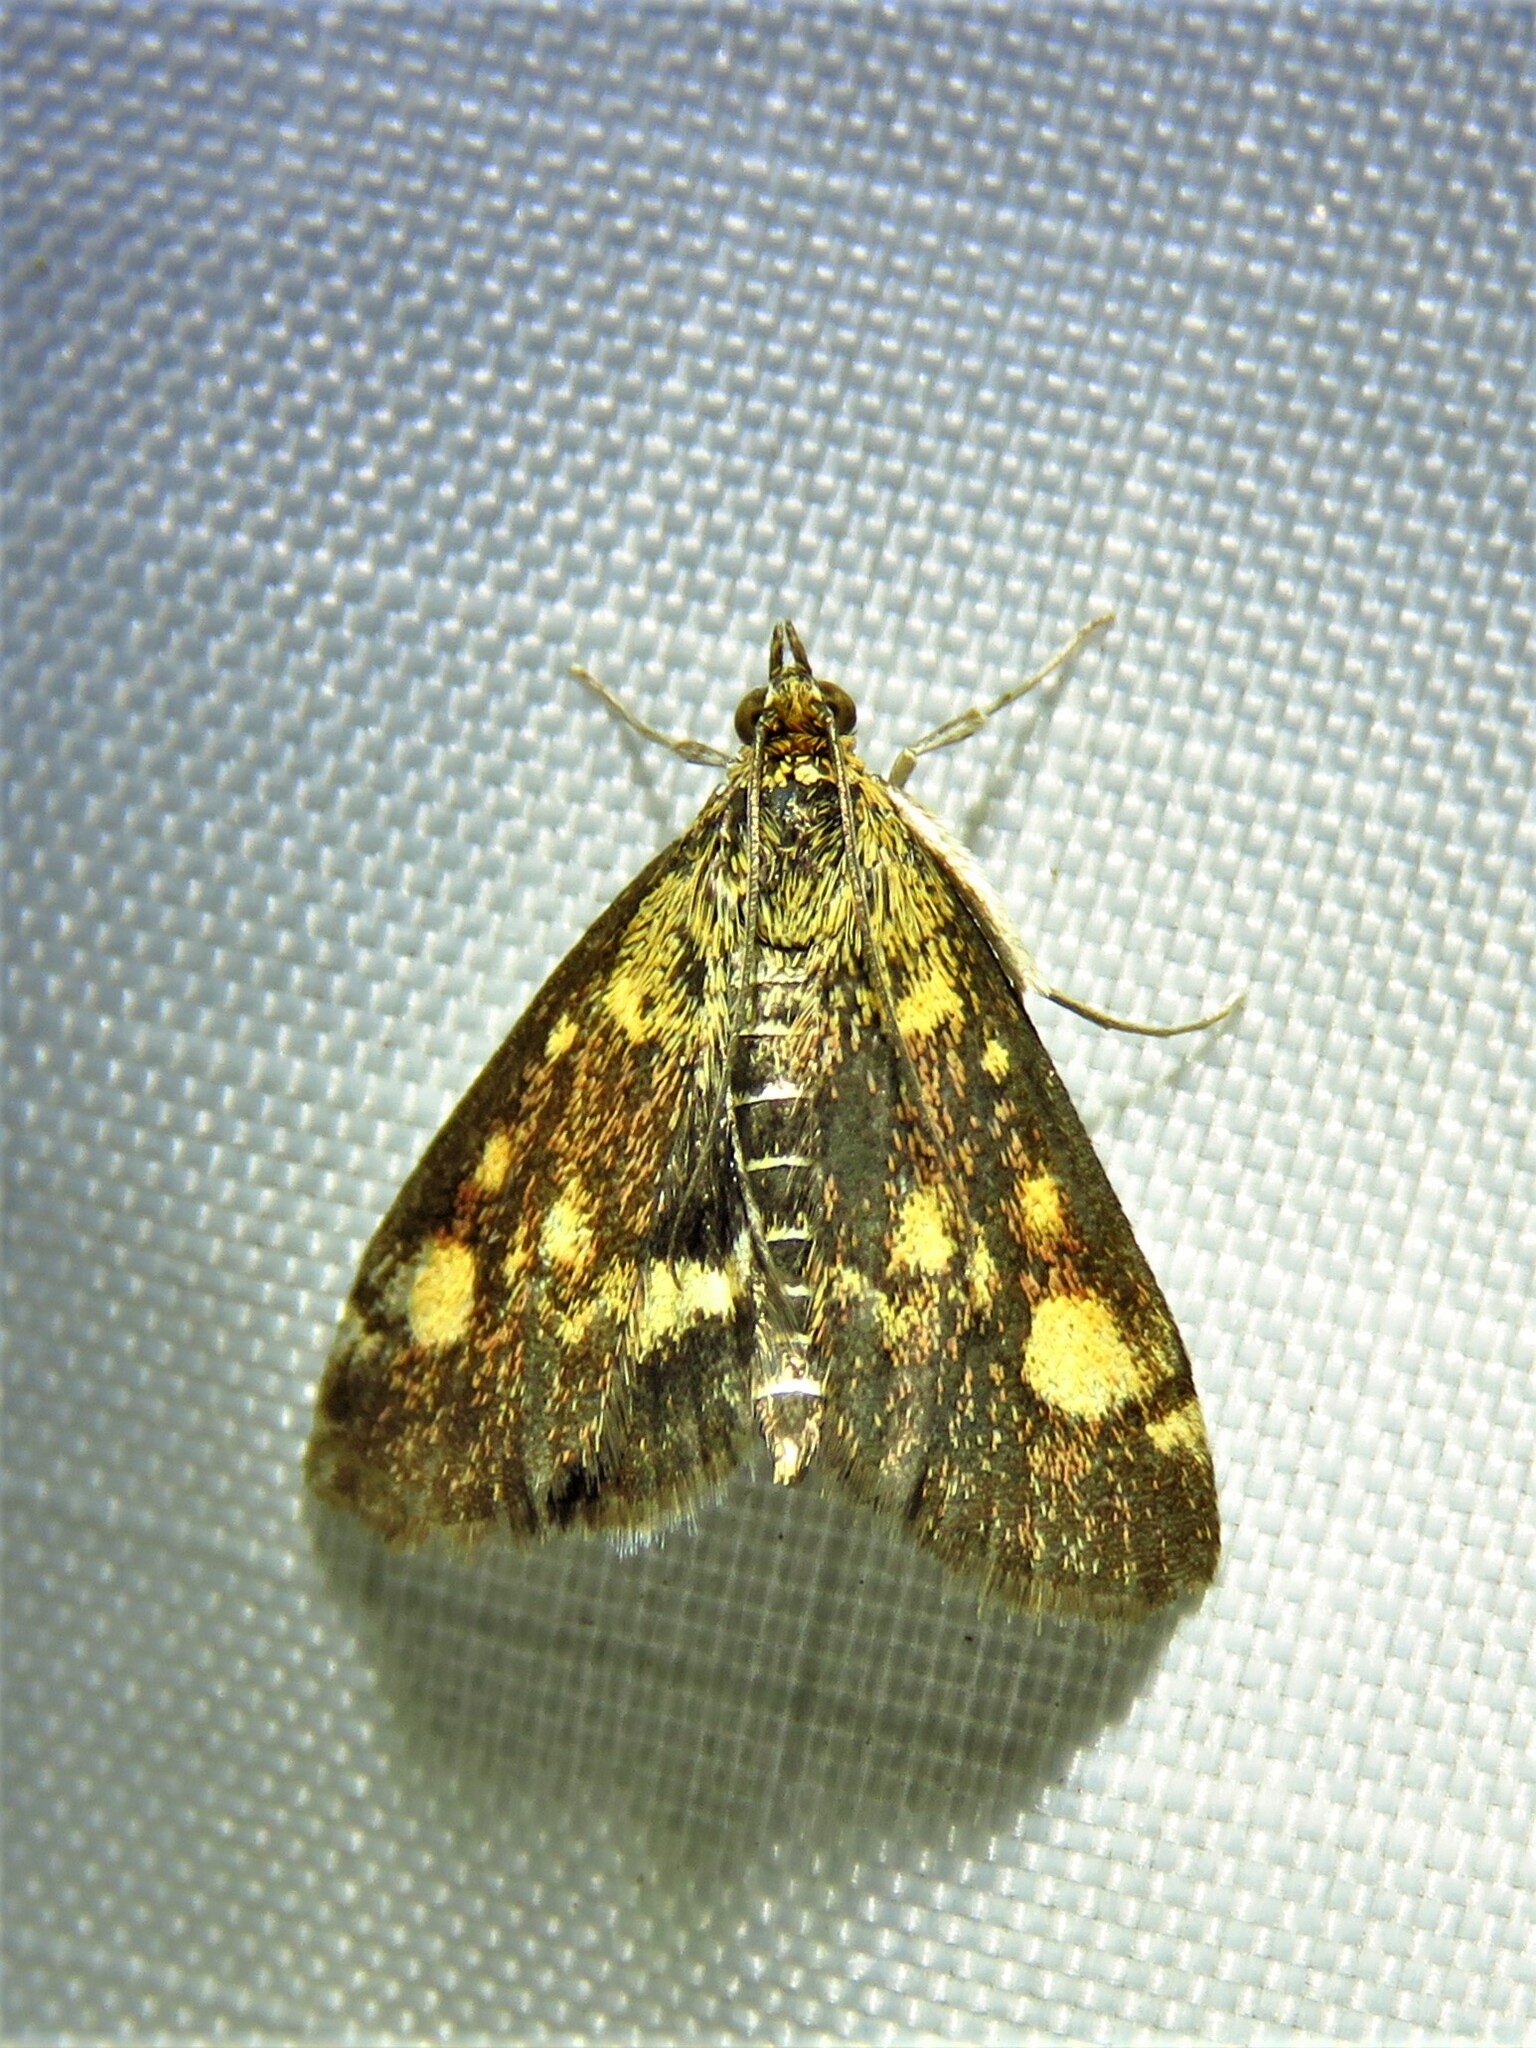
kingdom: Animalia
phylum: Arthropoda
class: Insecta
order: Lepidoptera
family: Crambidae
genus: Pyrausta
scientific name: Pyrausta aurata
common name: Small purple & gold
